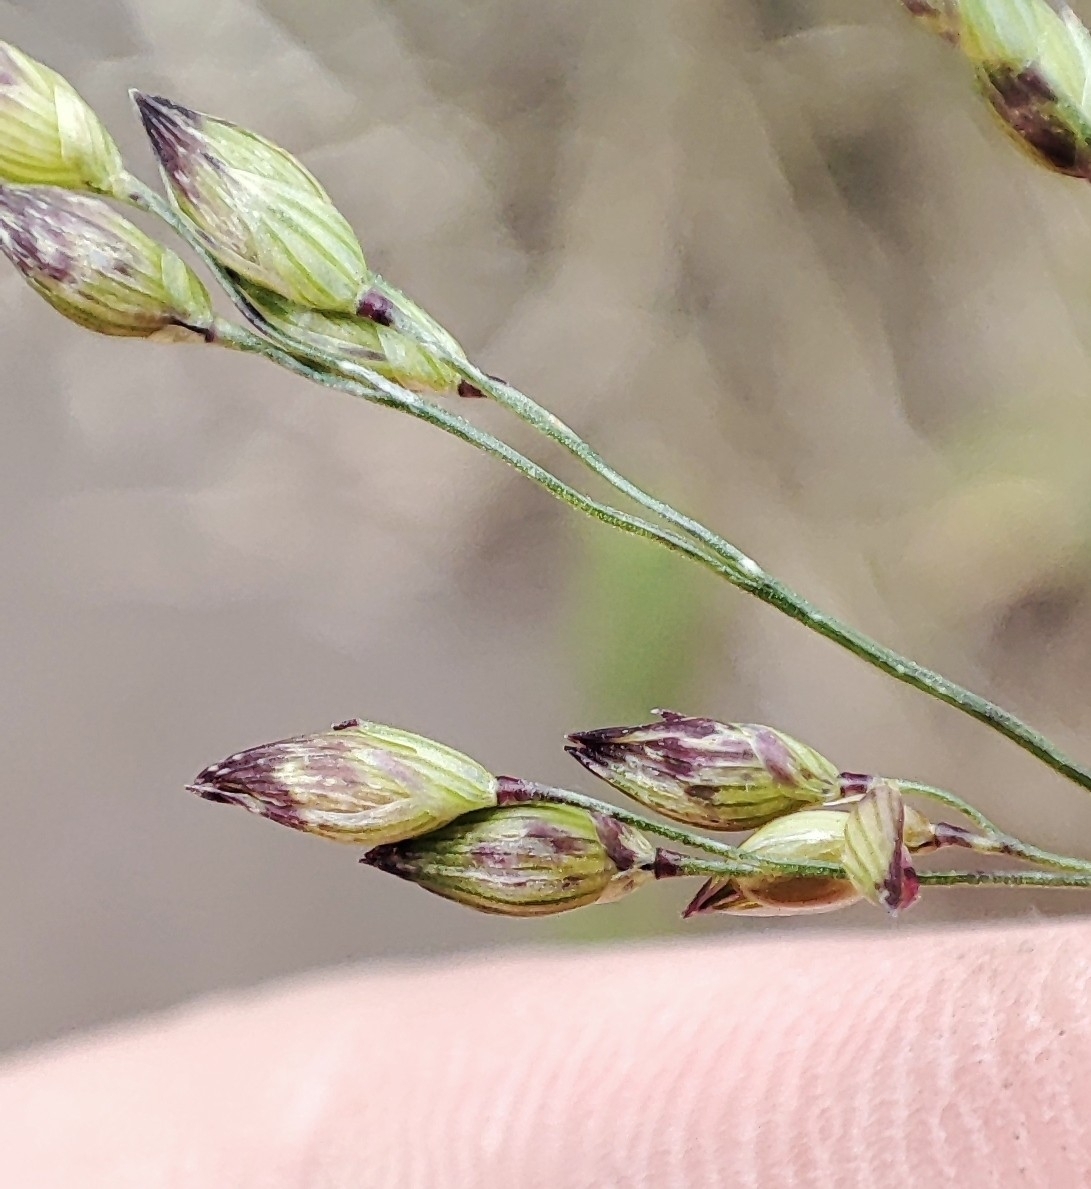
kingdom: Plantae
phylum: Tracheophyta
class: Liliopsida
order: Poales
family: Poaceae
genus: Panicum
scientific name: Panicum miliaceum
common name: Common millet
